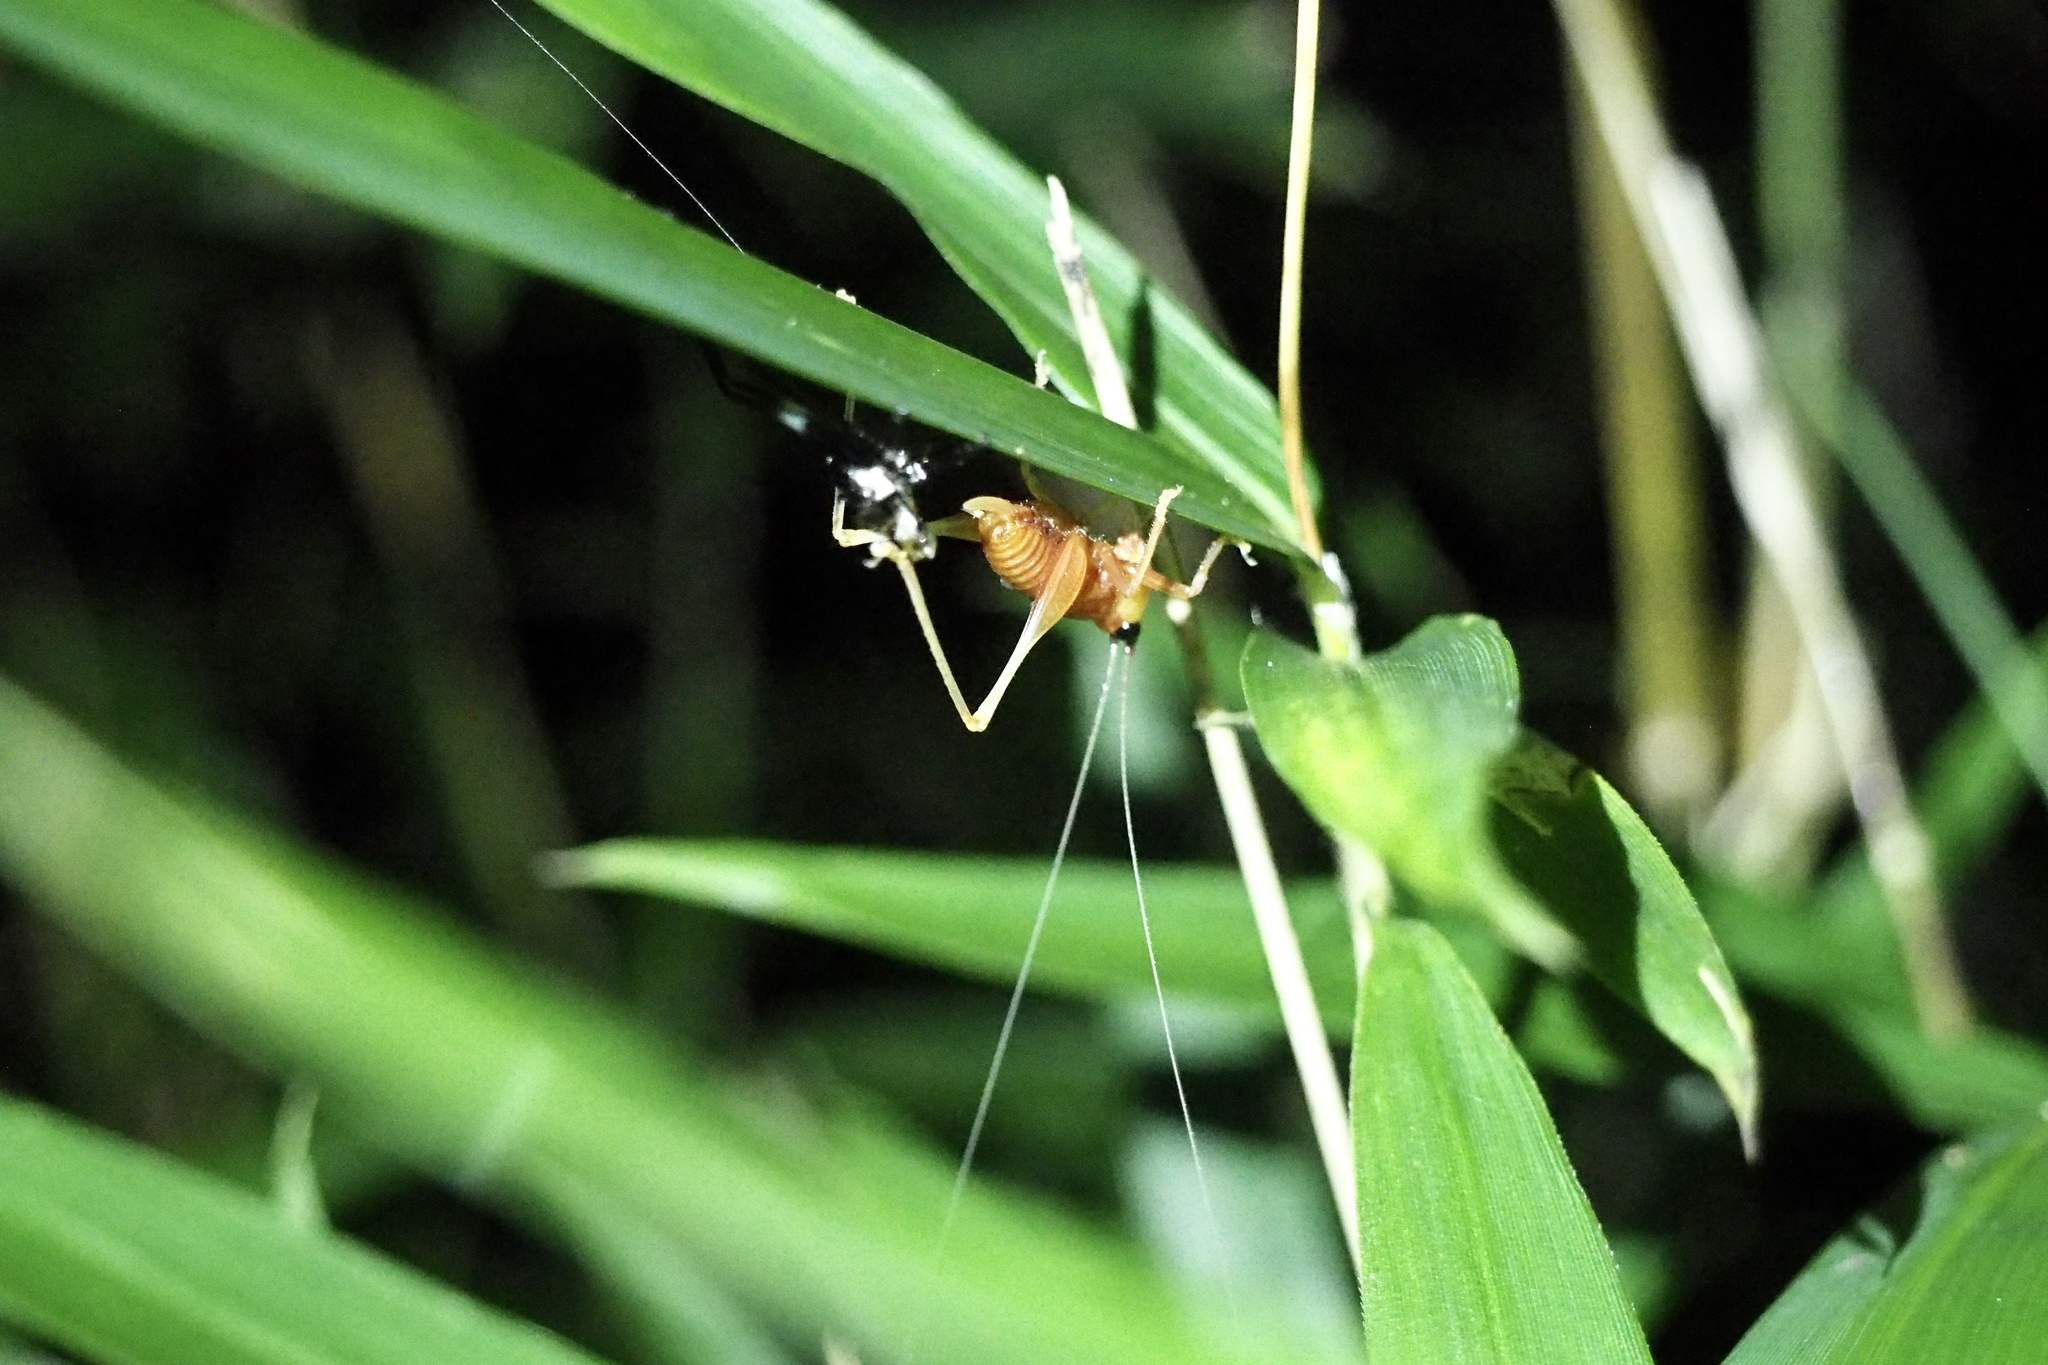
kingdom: Animalia
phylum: Arthropoda
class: Insecta
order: Orthoptera
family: Tettigoniidae
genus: Conocephalus
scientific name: Conocephalus melaenus
